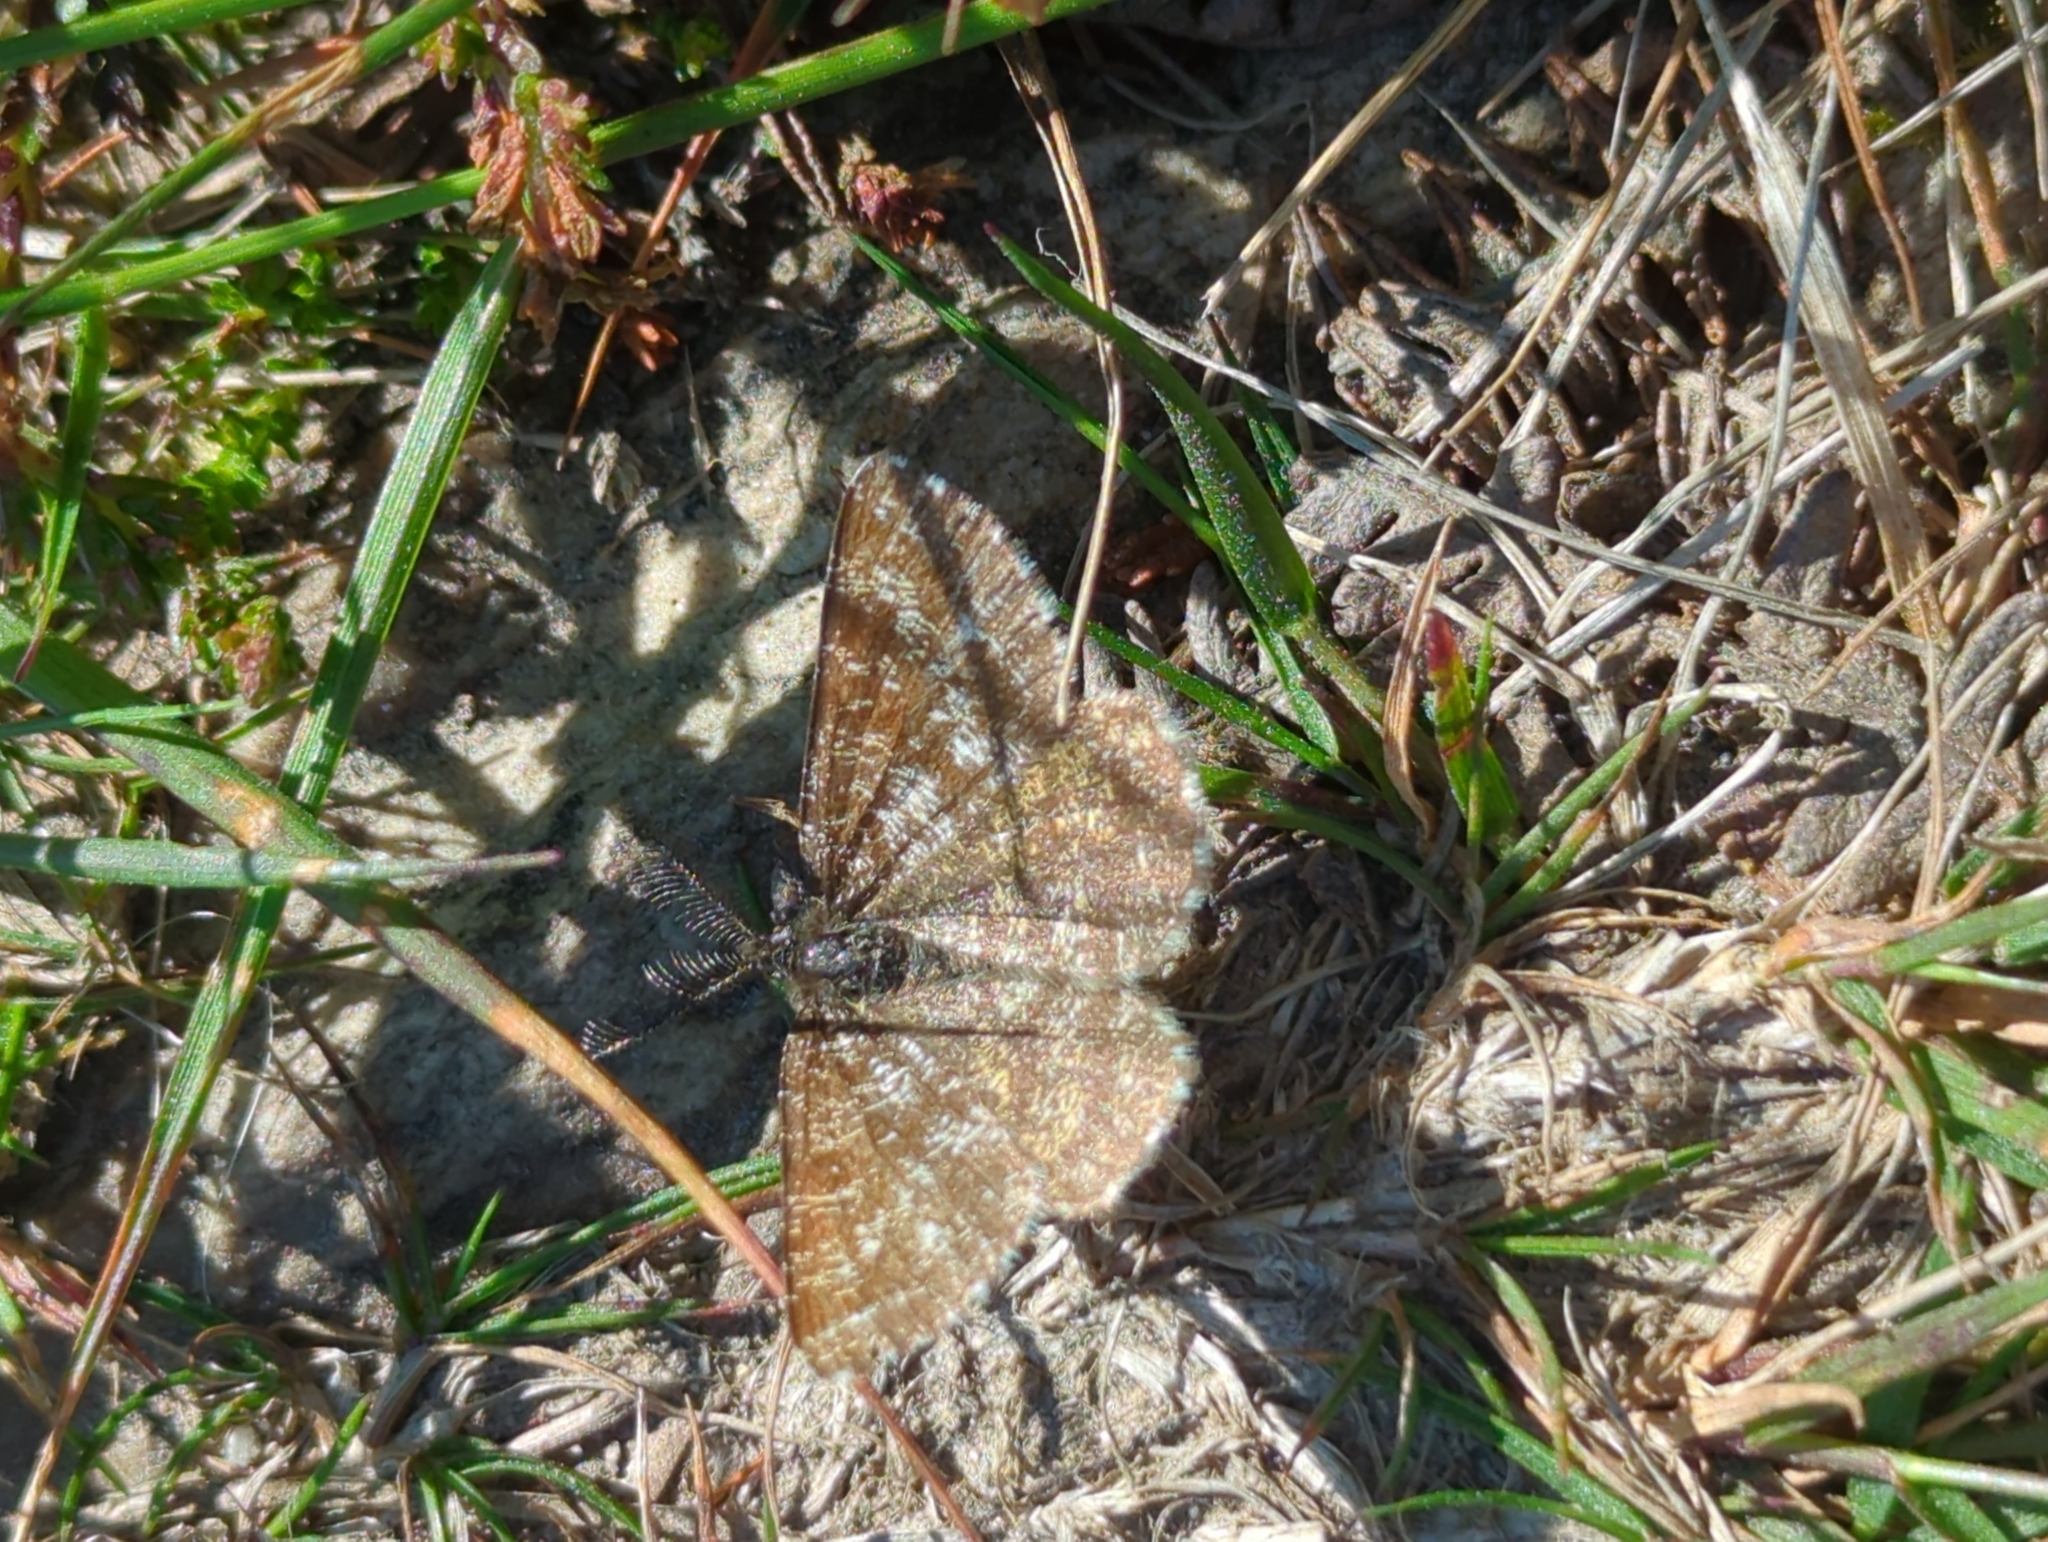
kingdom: Animalia
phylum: Arthropoda
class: Insecta
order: Lepidoptera
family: Geometridae
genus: Ematurga
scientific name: Ematurga atomaria
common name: Common heath
